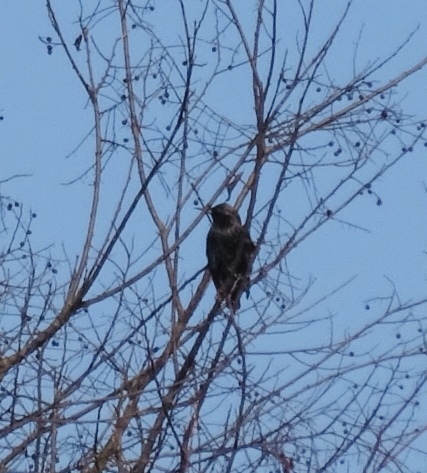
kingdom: Animalia
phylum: Chordata
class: Aves
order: Passeriformes
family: Sturnidae
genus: Sturnus
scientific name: Sturnus vulgaris
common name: Common starling
